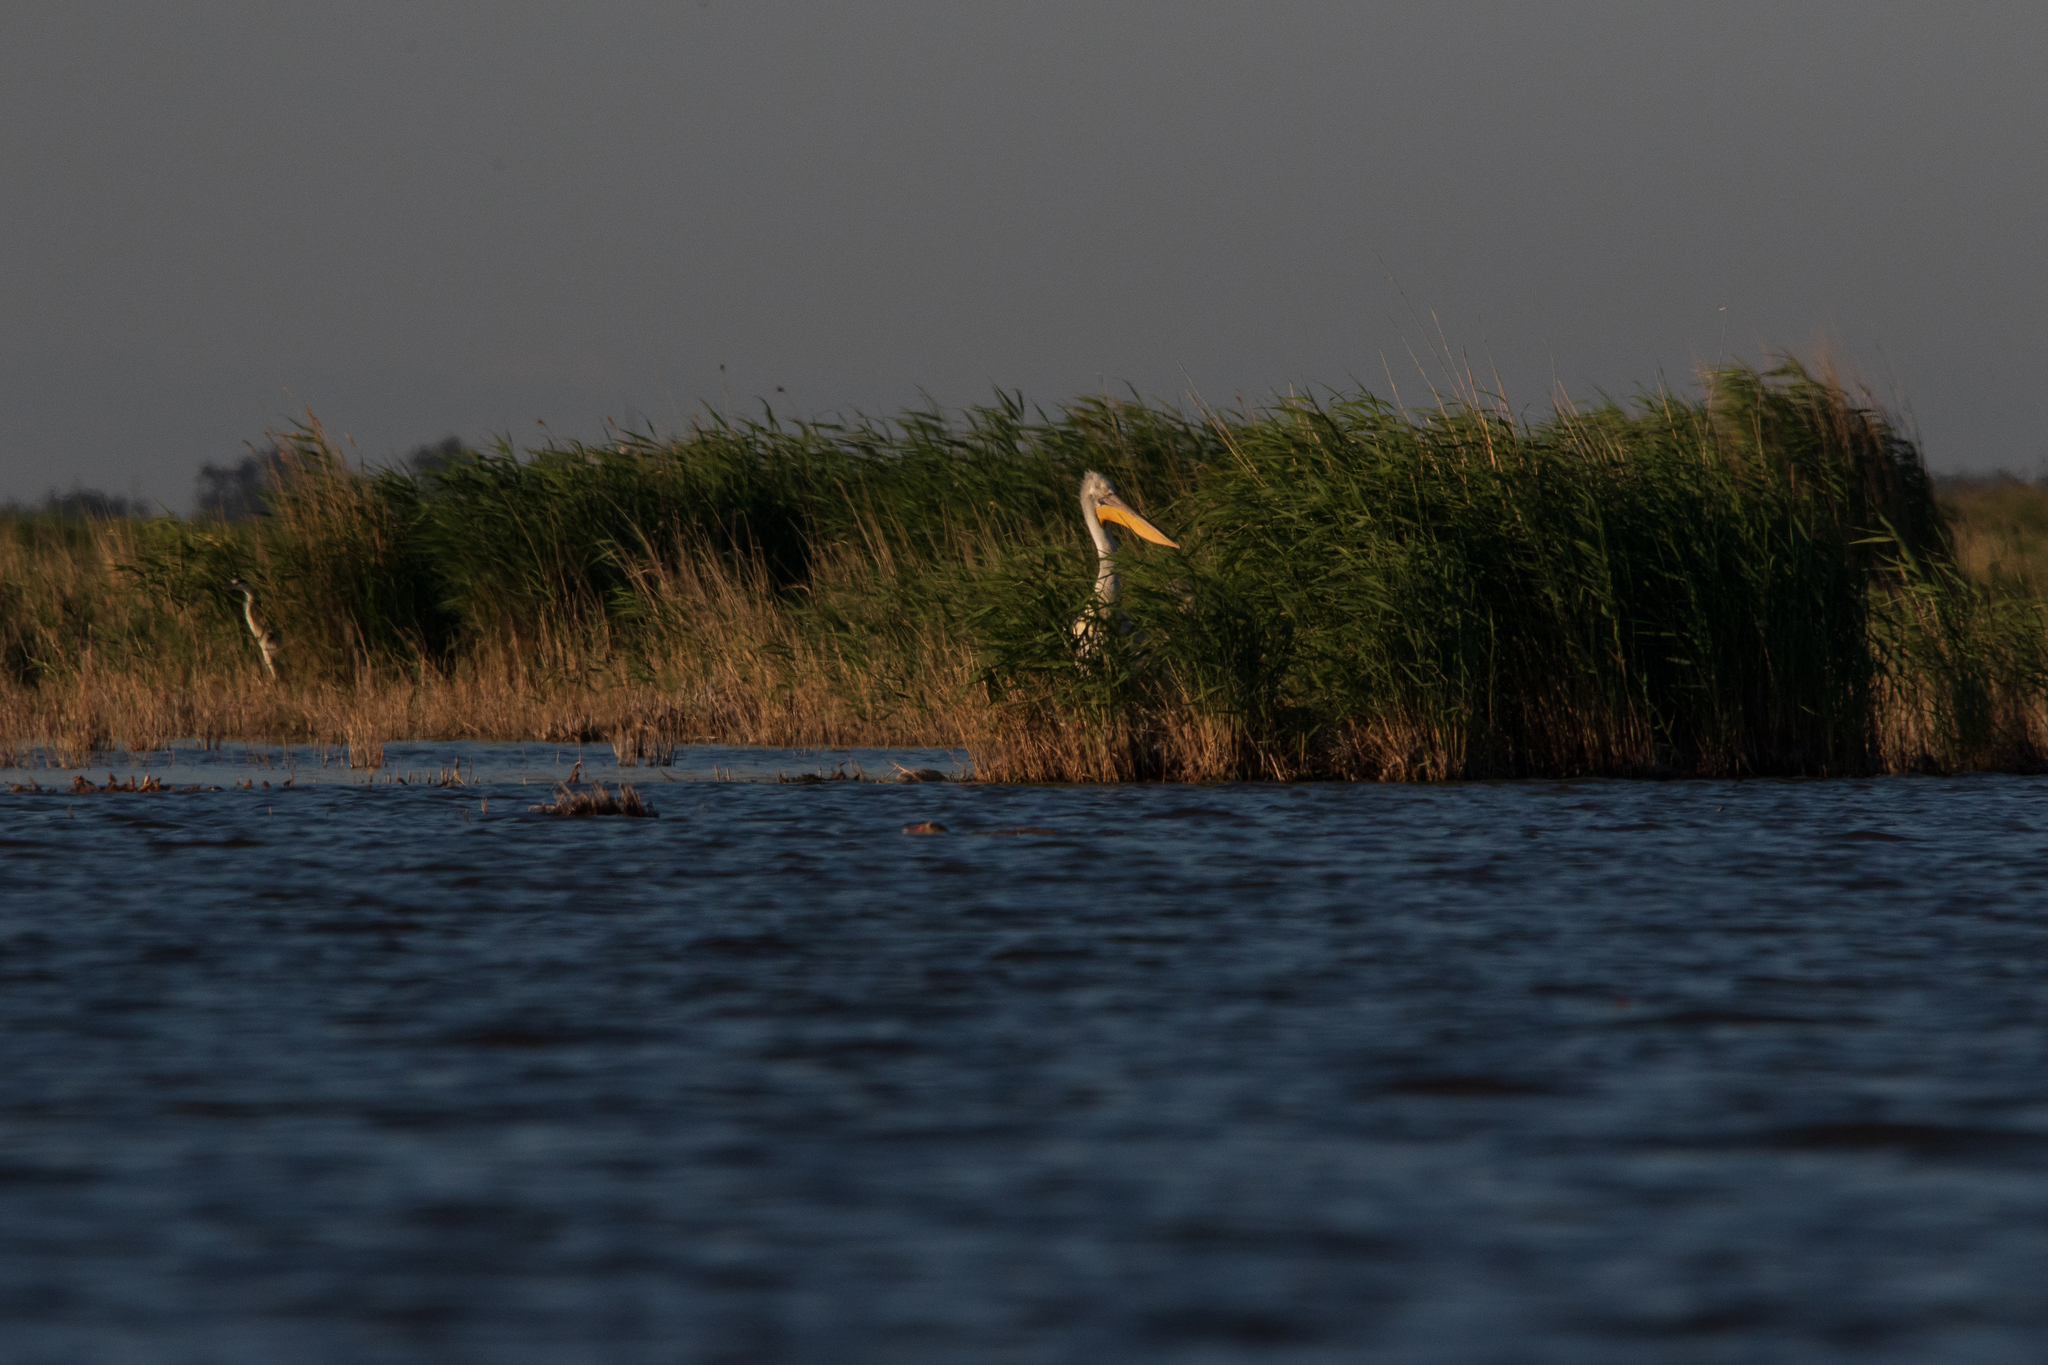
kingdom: Animalia
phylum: Chordata
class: Aves
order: Pelecaniformes
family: Pelecanidae
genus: Pelecanus
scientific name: Pelecanus crispus
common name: Dalmatian pelican
